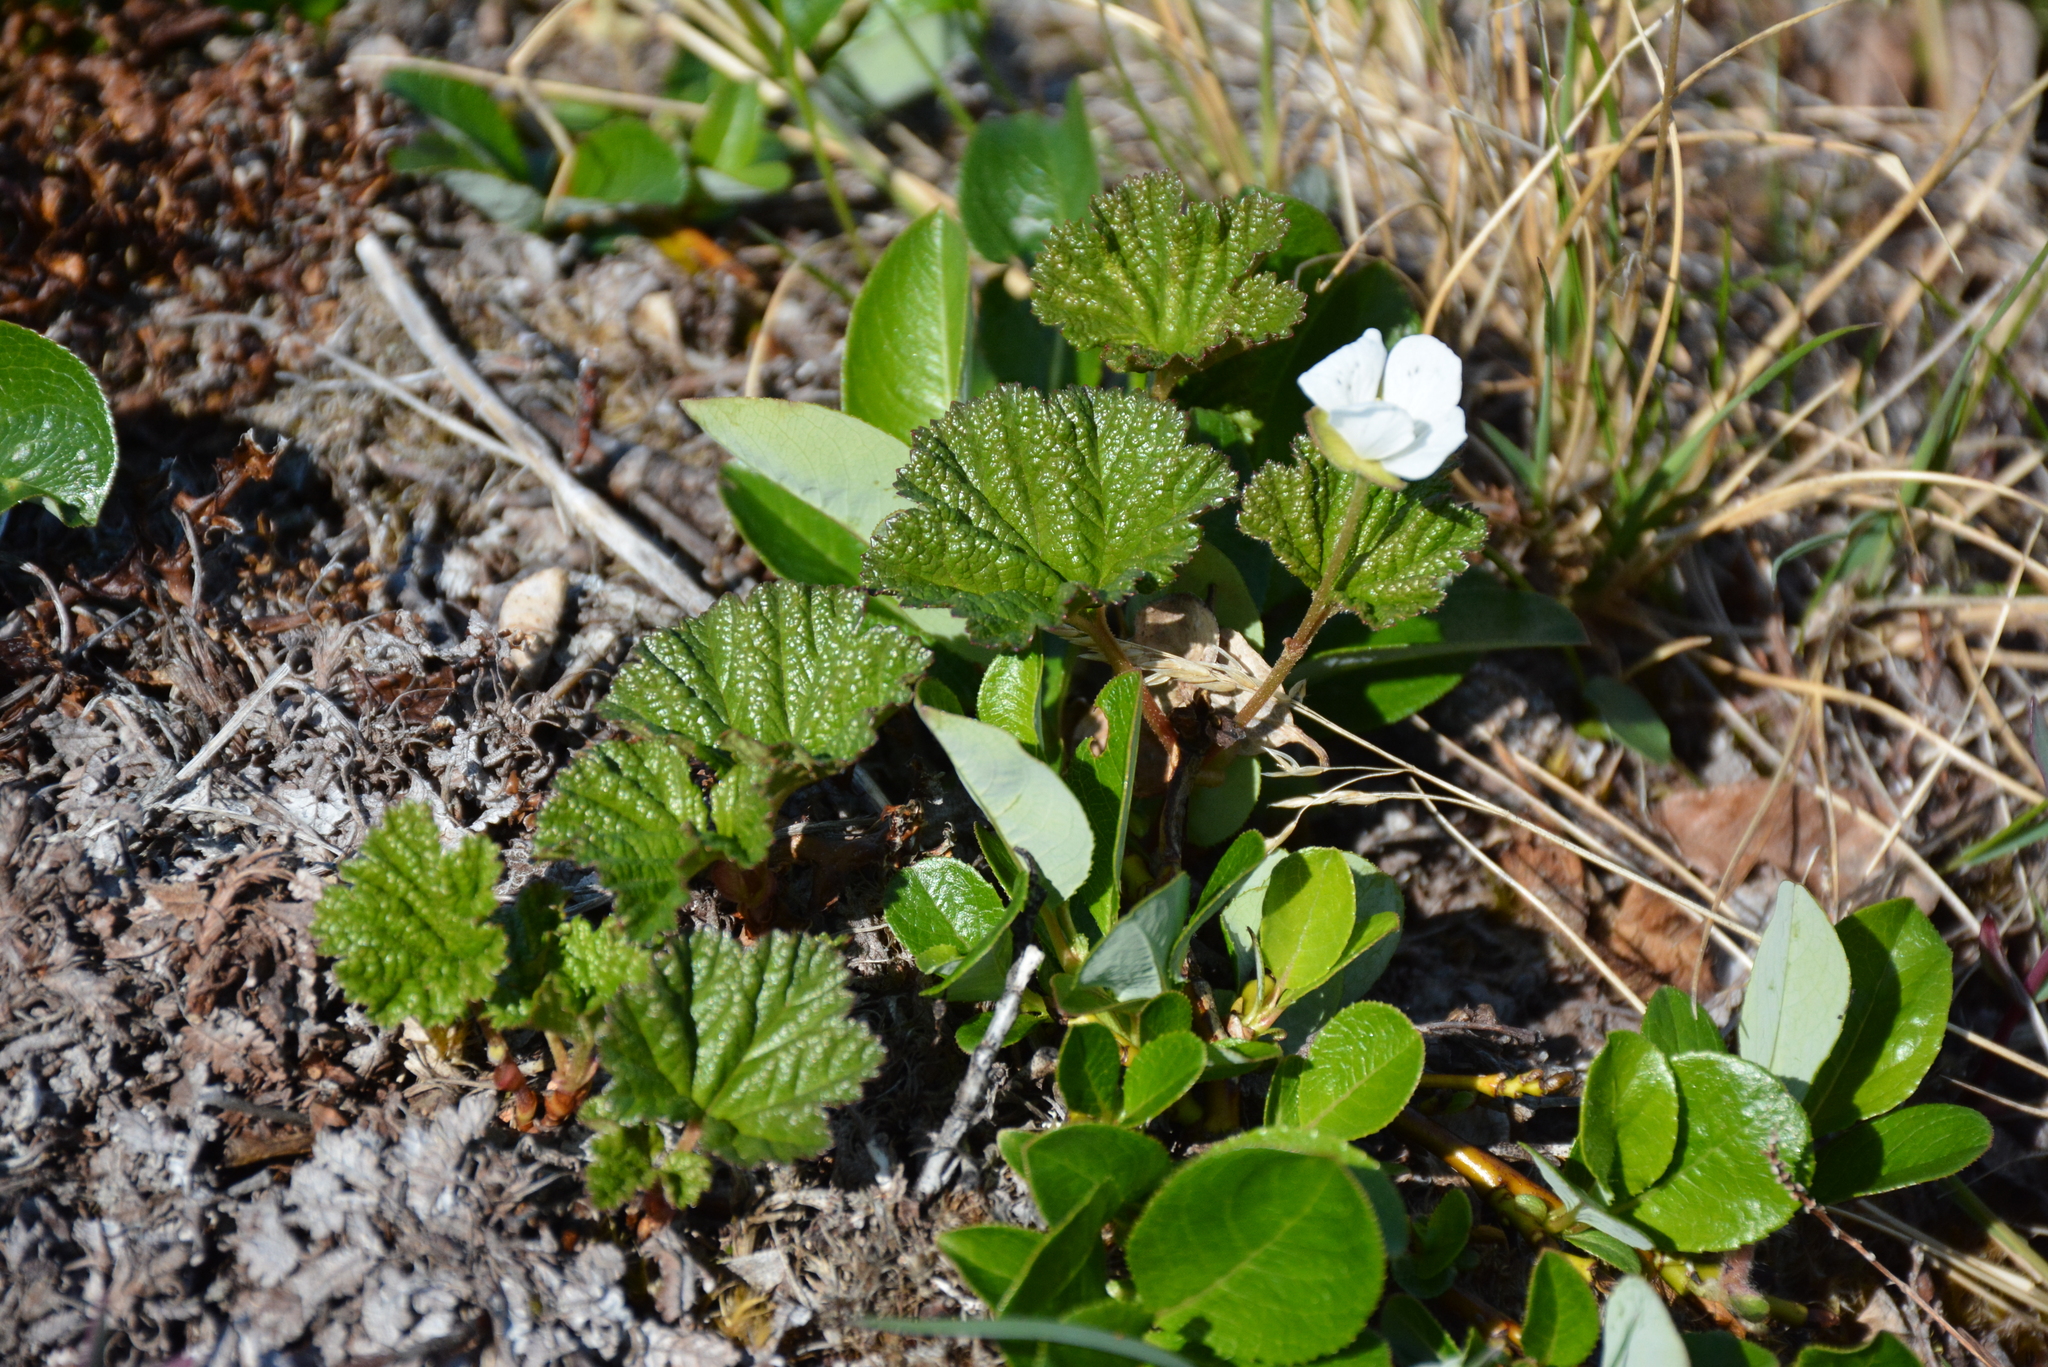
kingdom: Plantae
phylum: Tracheophyta
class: Magnoliopsida
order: Rosales
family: Rosaceae
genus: Rubus
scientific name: Rubus chamaemorus
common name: Cloudberry
